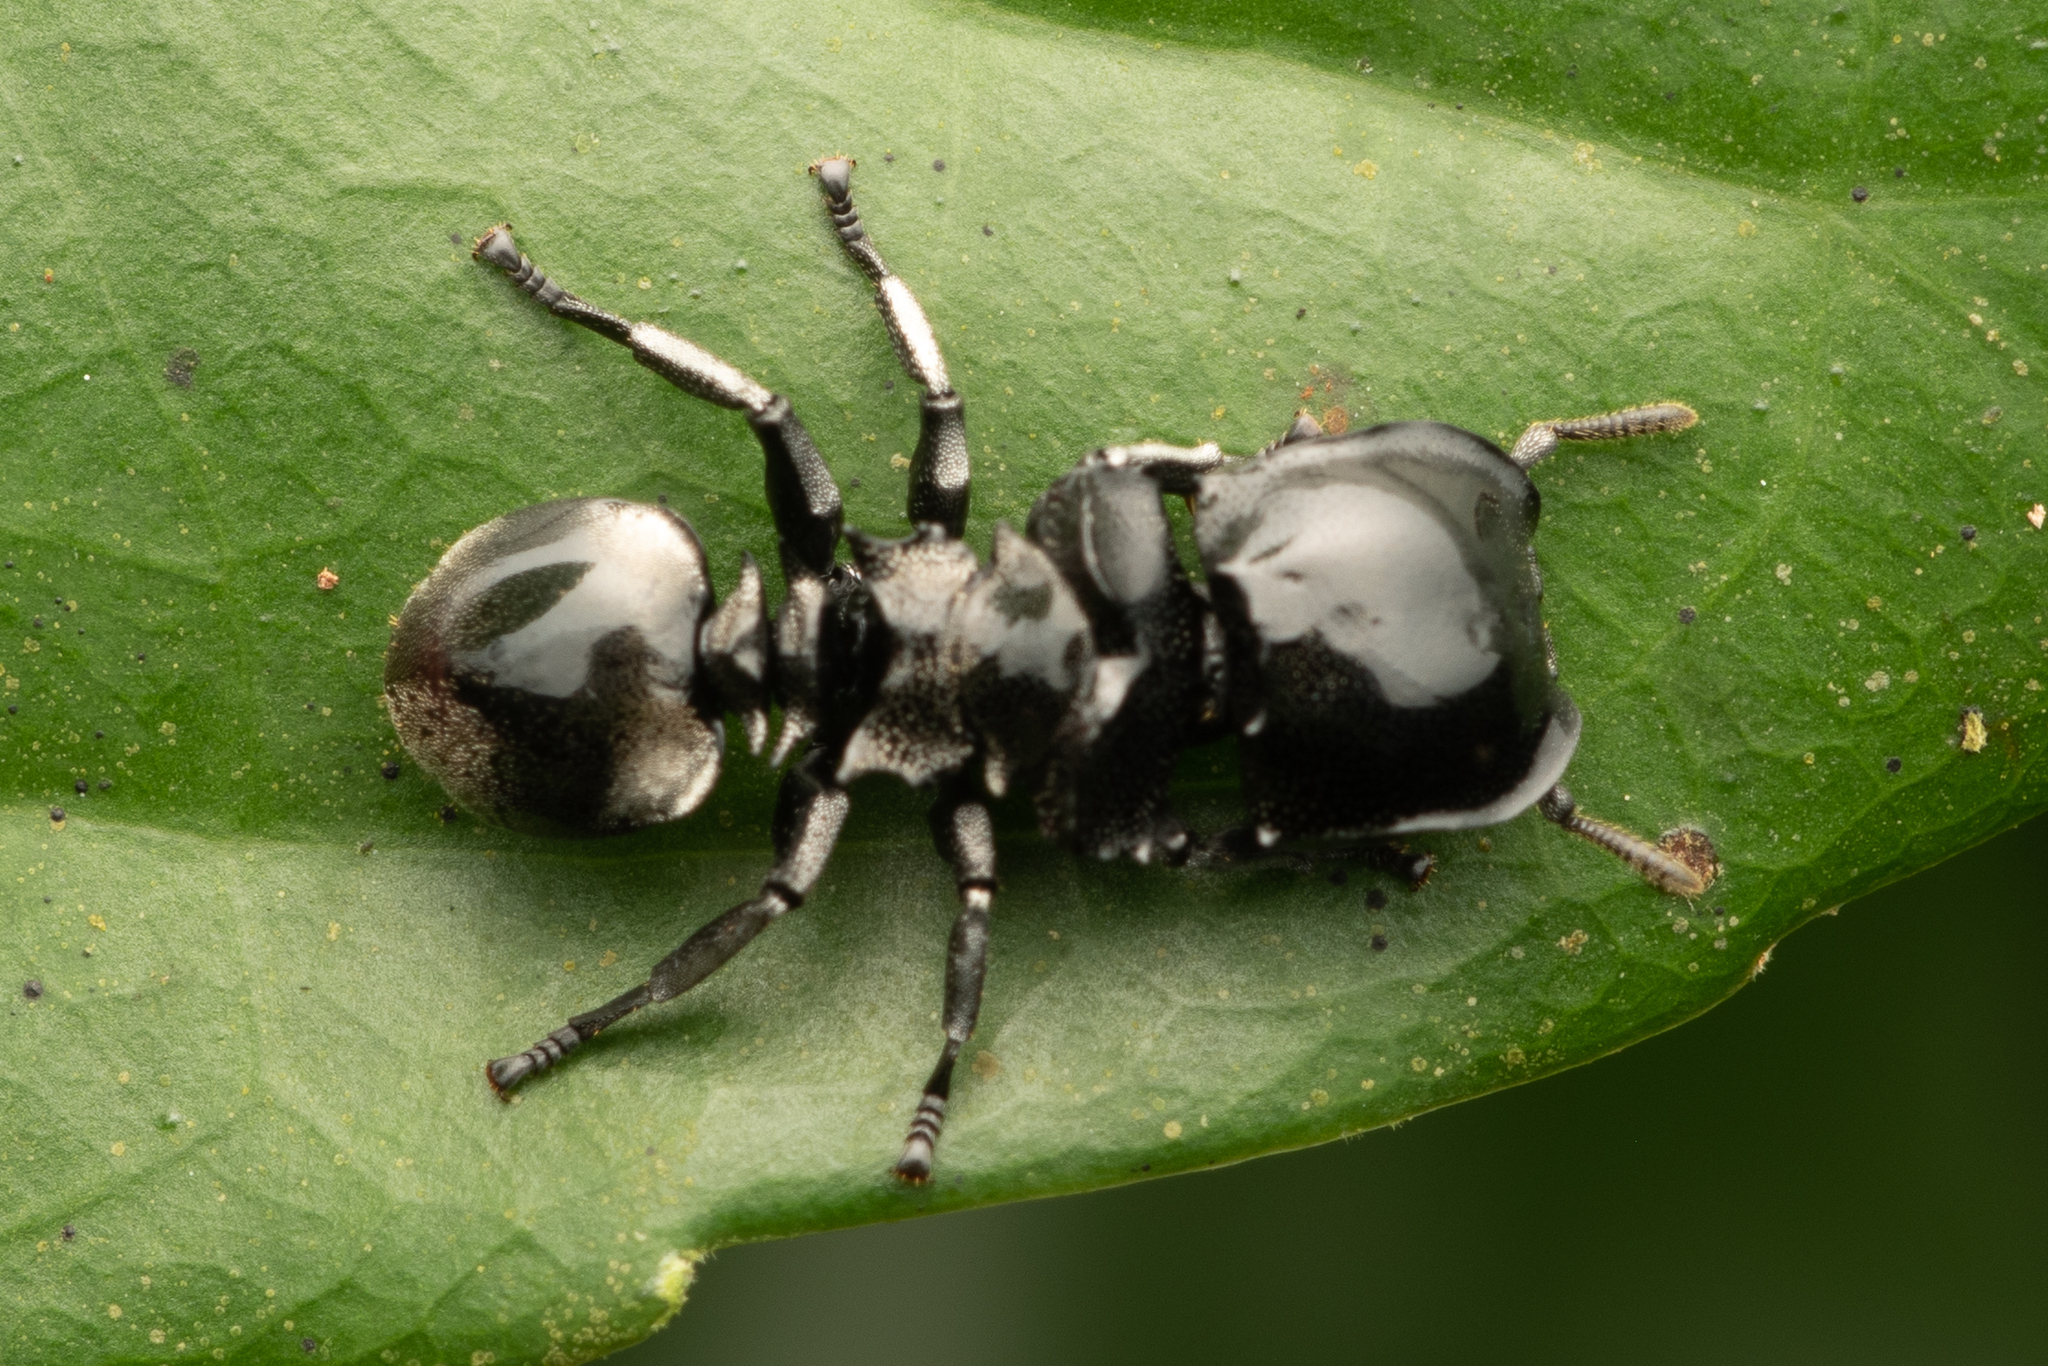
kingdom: Animalia
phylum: Arthropoda
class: Insecta
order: Hymenoptera
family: Formicidae
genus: Cephalotes
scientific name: Cephalotes basalis
